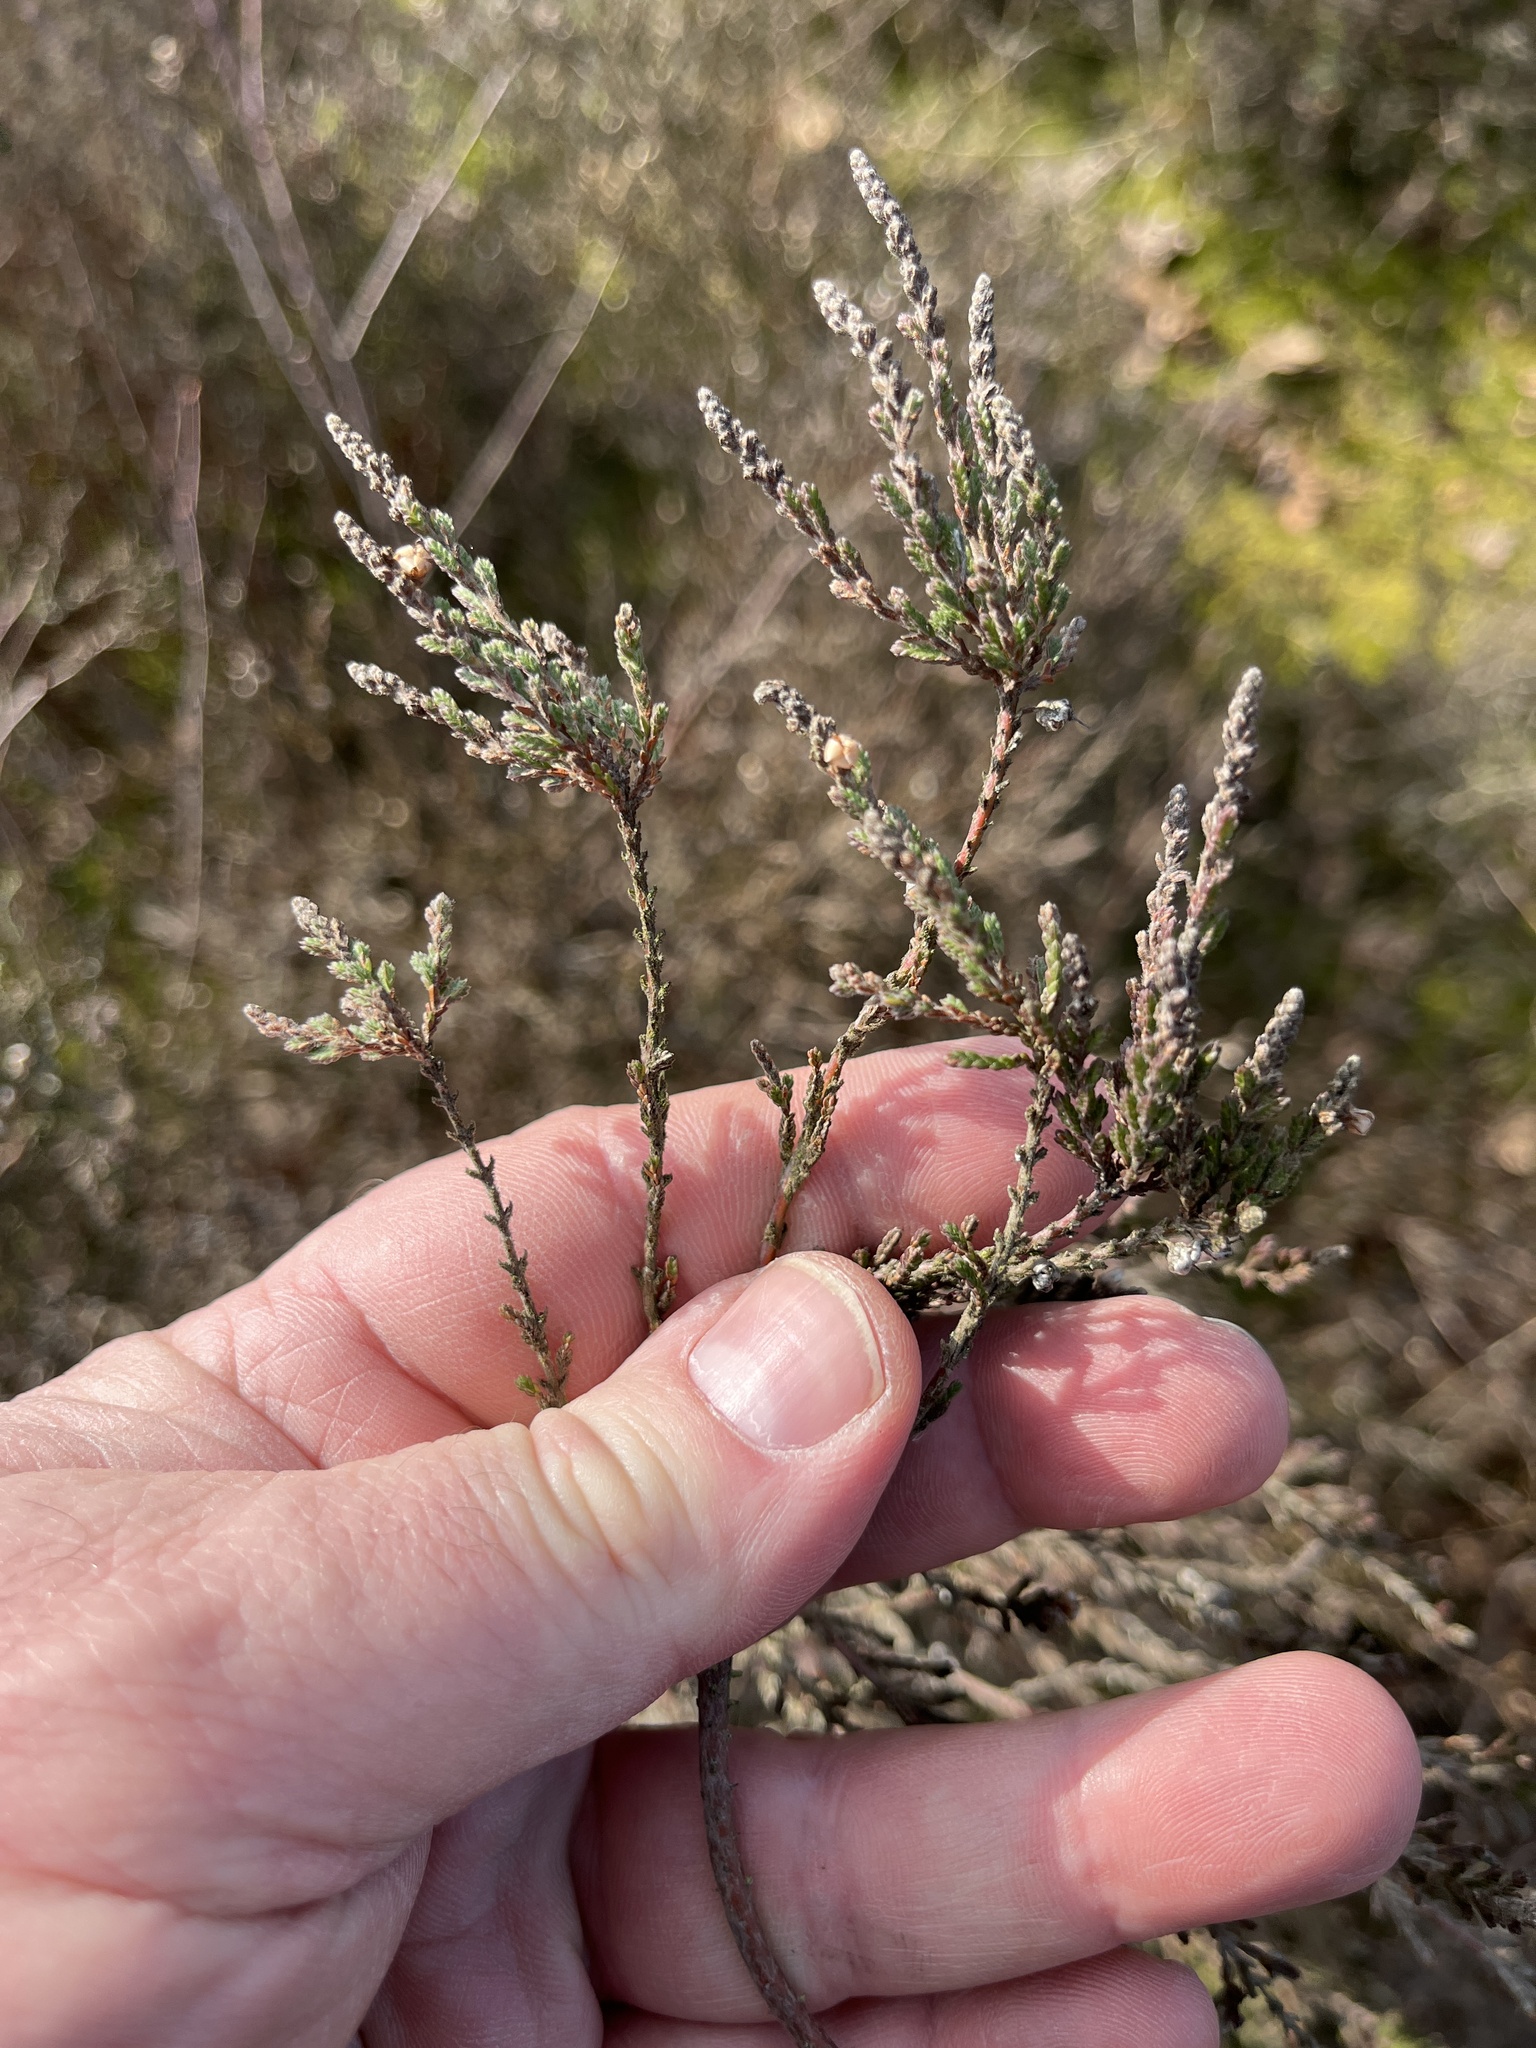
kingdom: Plantae
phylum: Tracheophyta
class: Magnoliopsida
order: Ericales
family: Ericaceae
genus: Calluna
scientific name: Calluna vulgaris
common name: Heather
